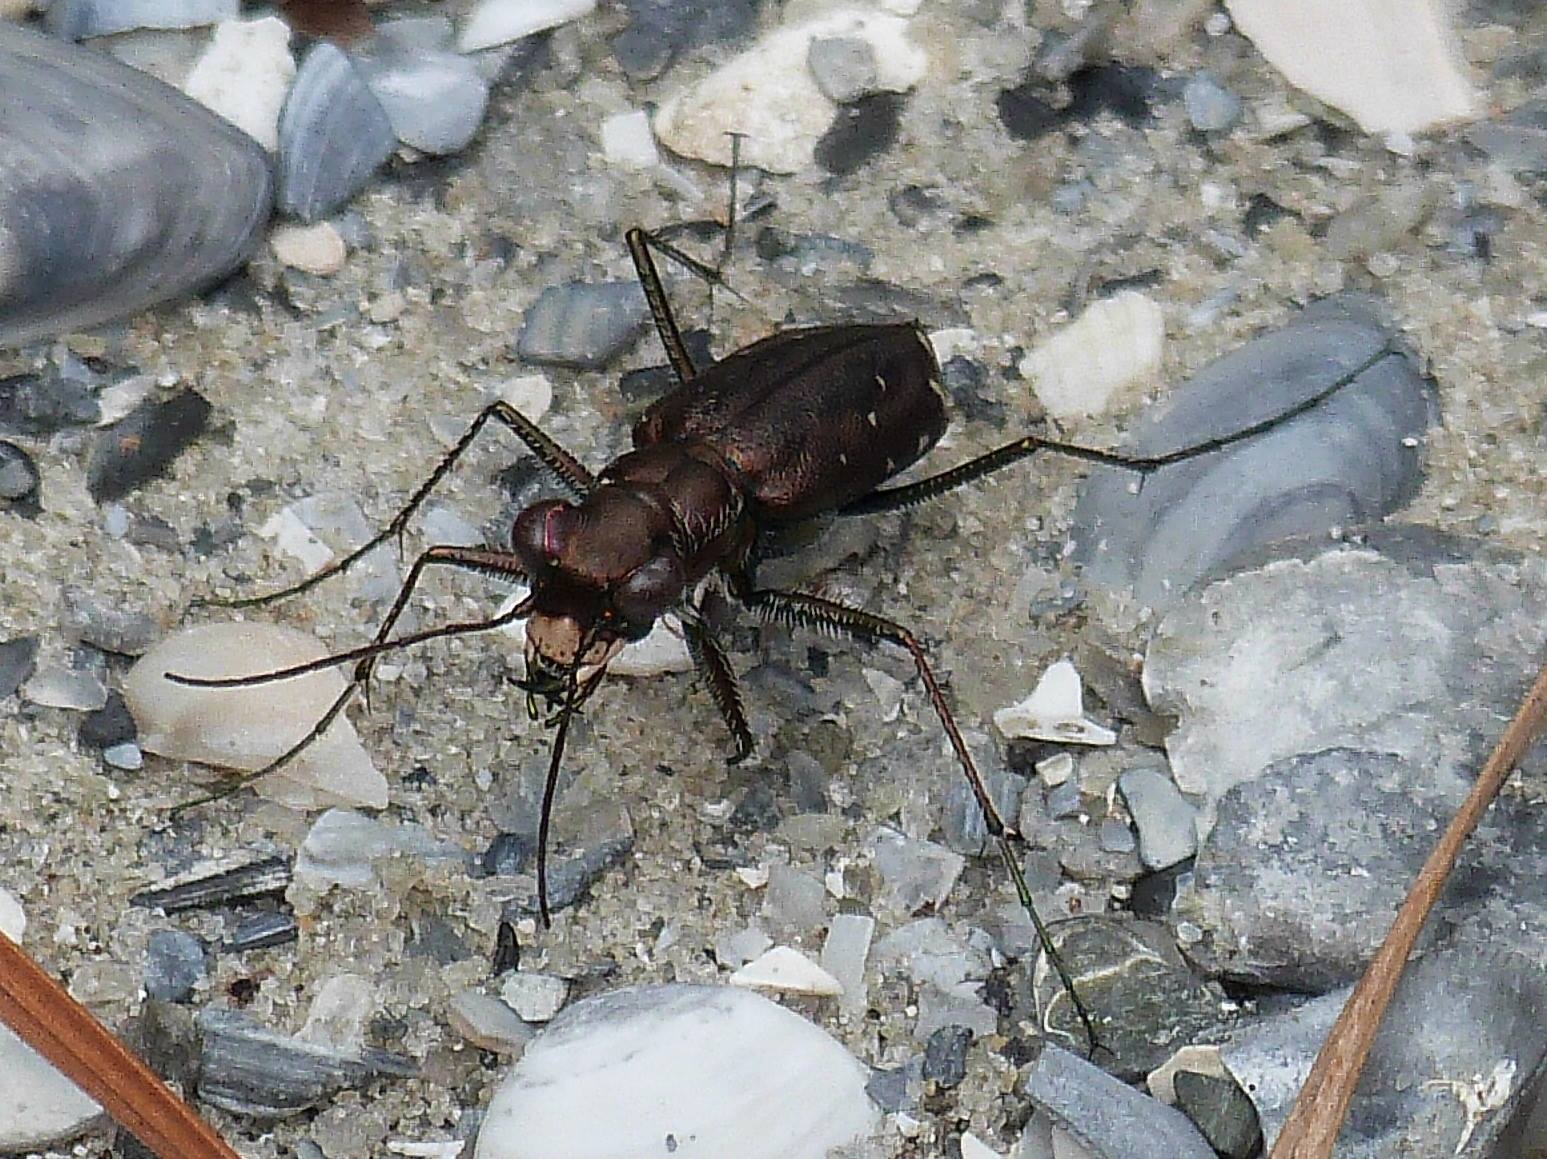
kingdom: Animalia
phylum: Arthropoda
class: Insecta
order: Coleoptera
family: Carabidae
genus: Cicindela
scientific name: Cicindela punctulata
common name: Punctured tiger beetle
